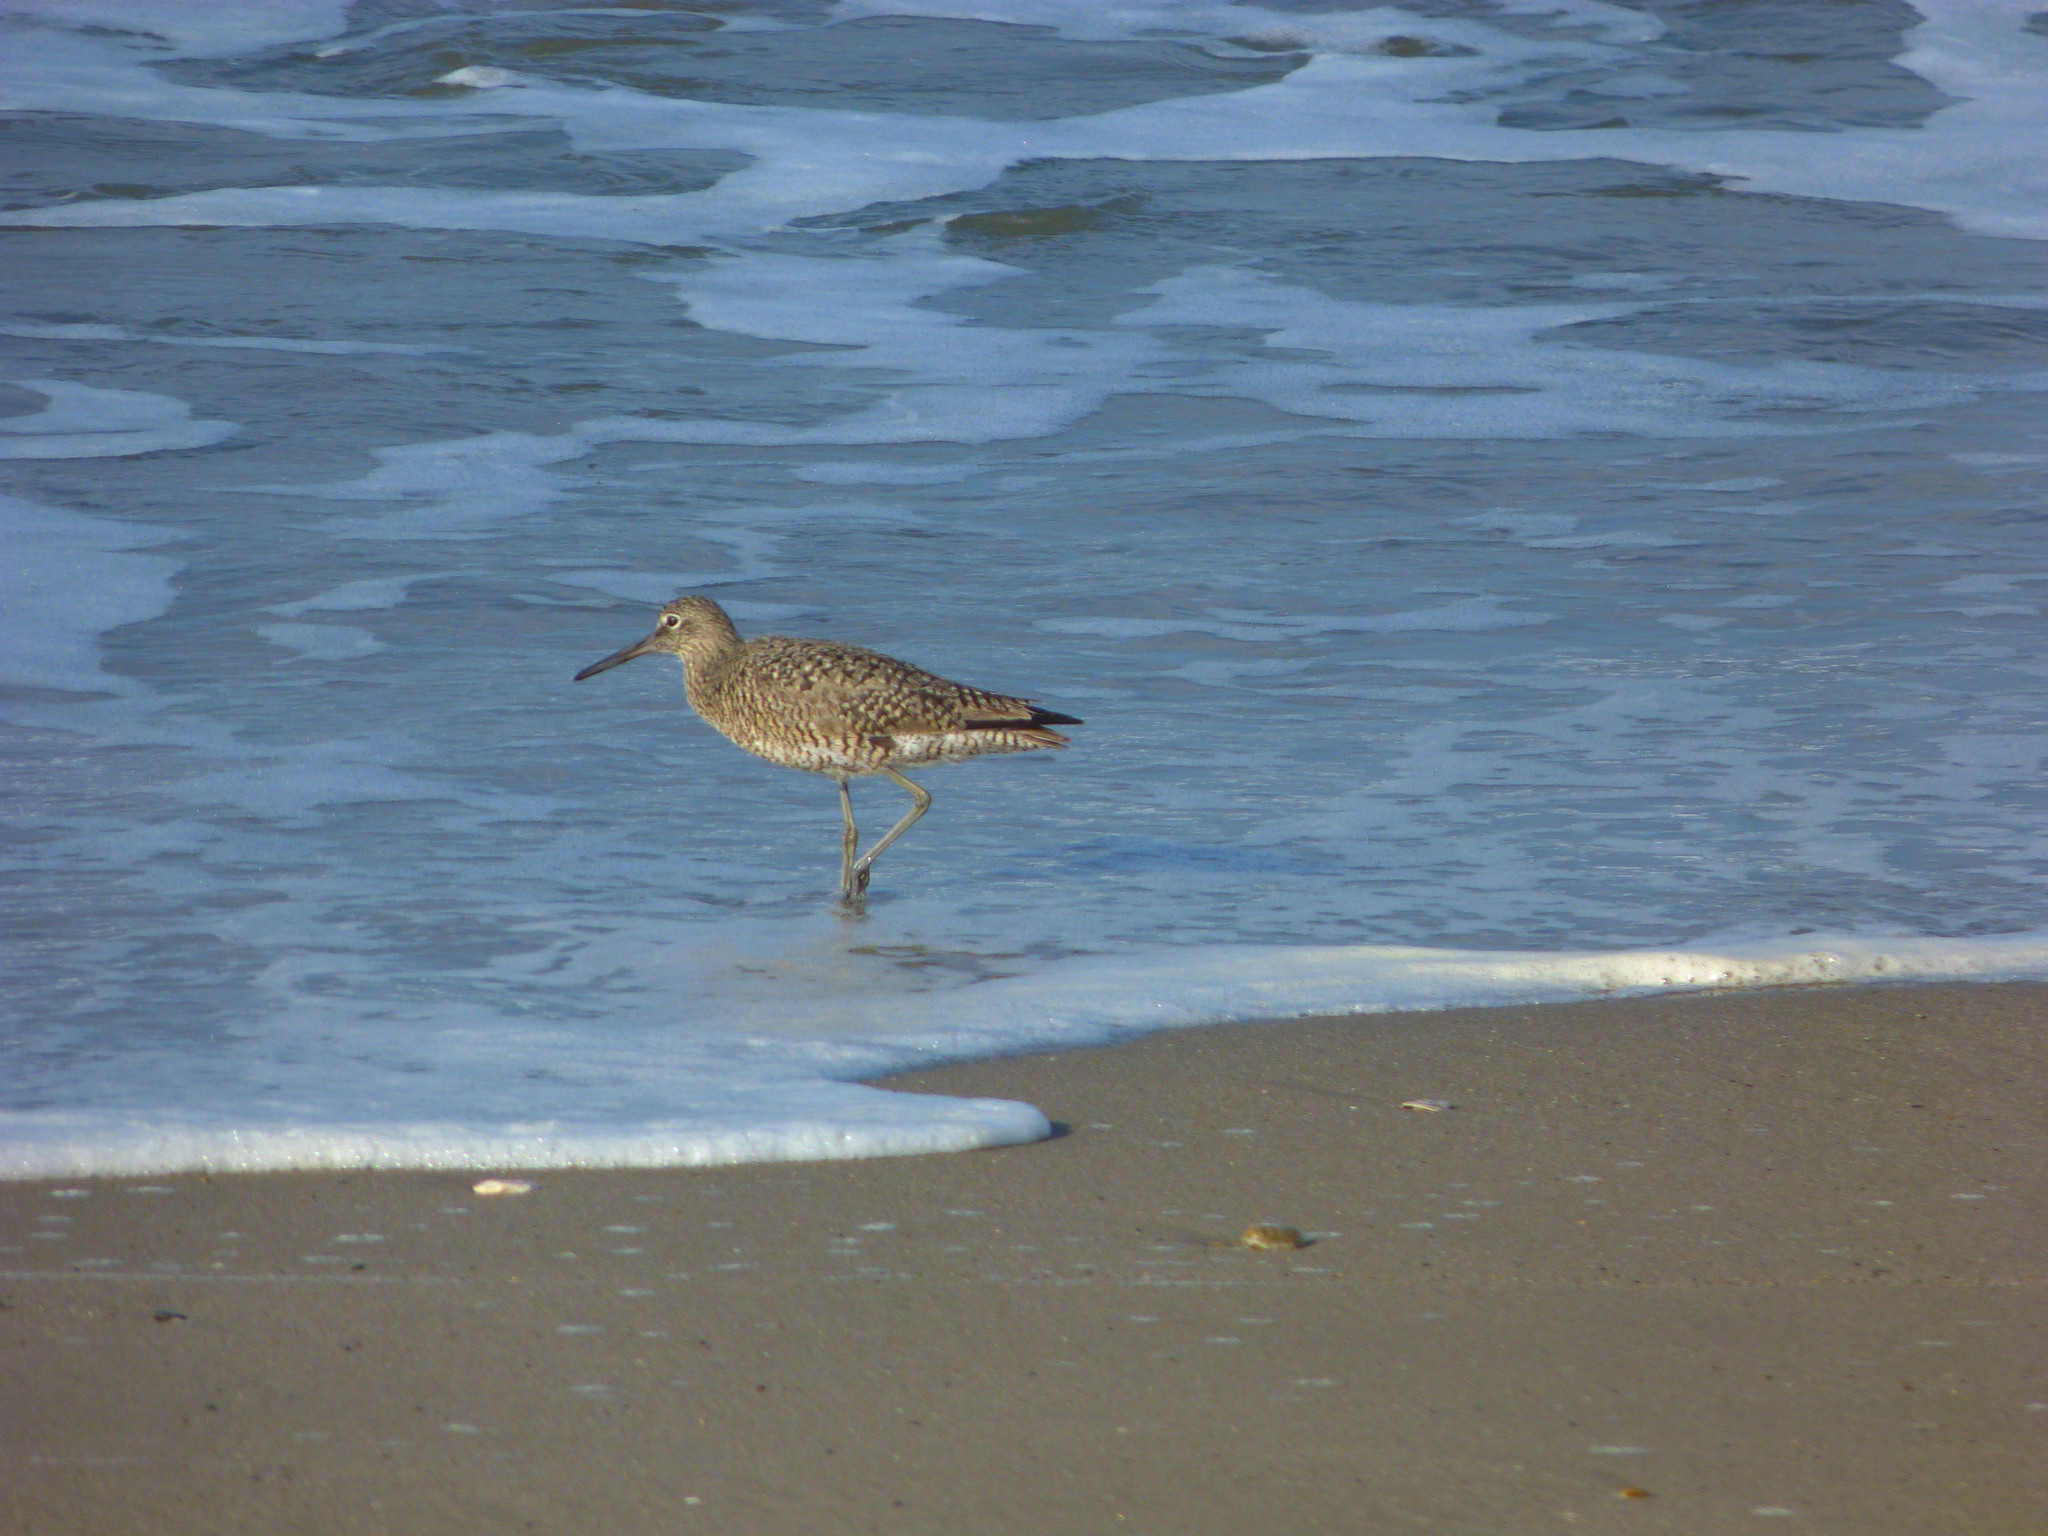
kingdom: Animalia
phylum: Chordata
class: Aves
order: Charadriiformes
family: Scolopacidae
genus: Tringa
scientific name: Tringa semipalmata
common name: Willet
